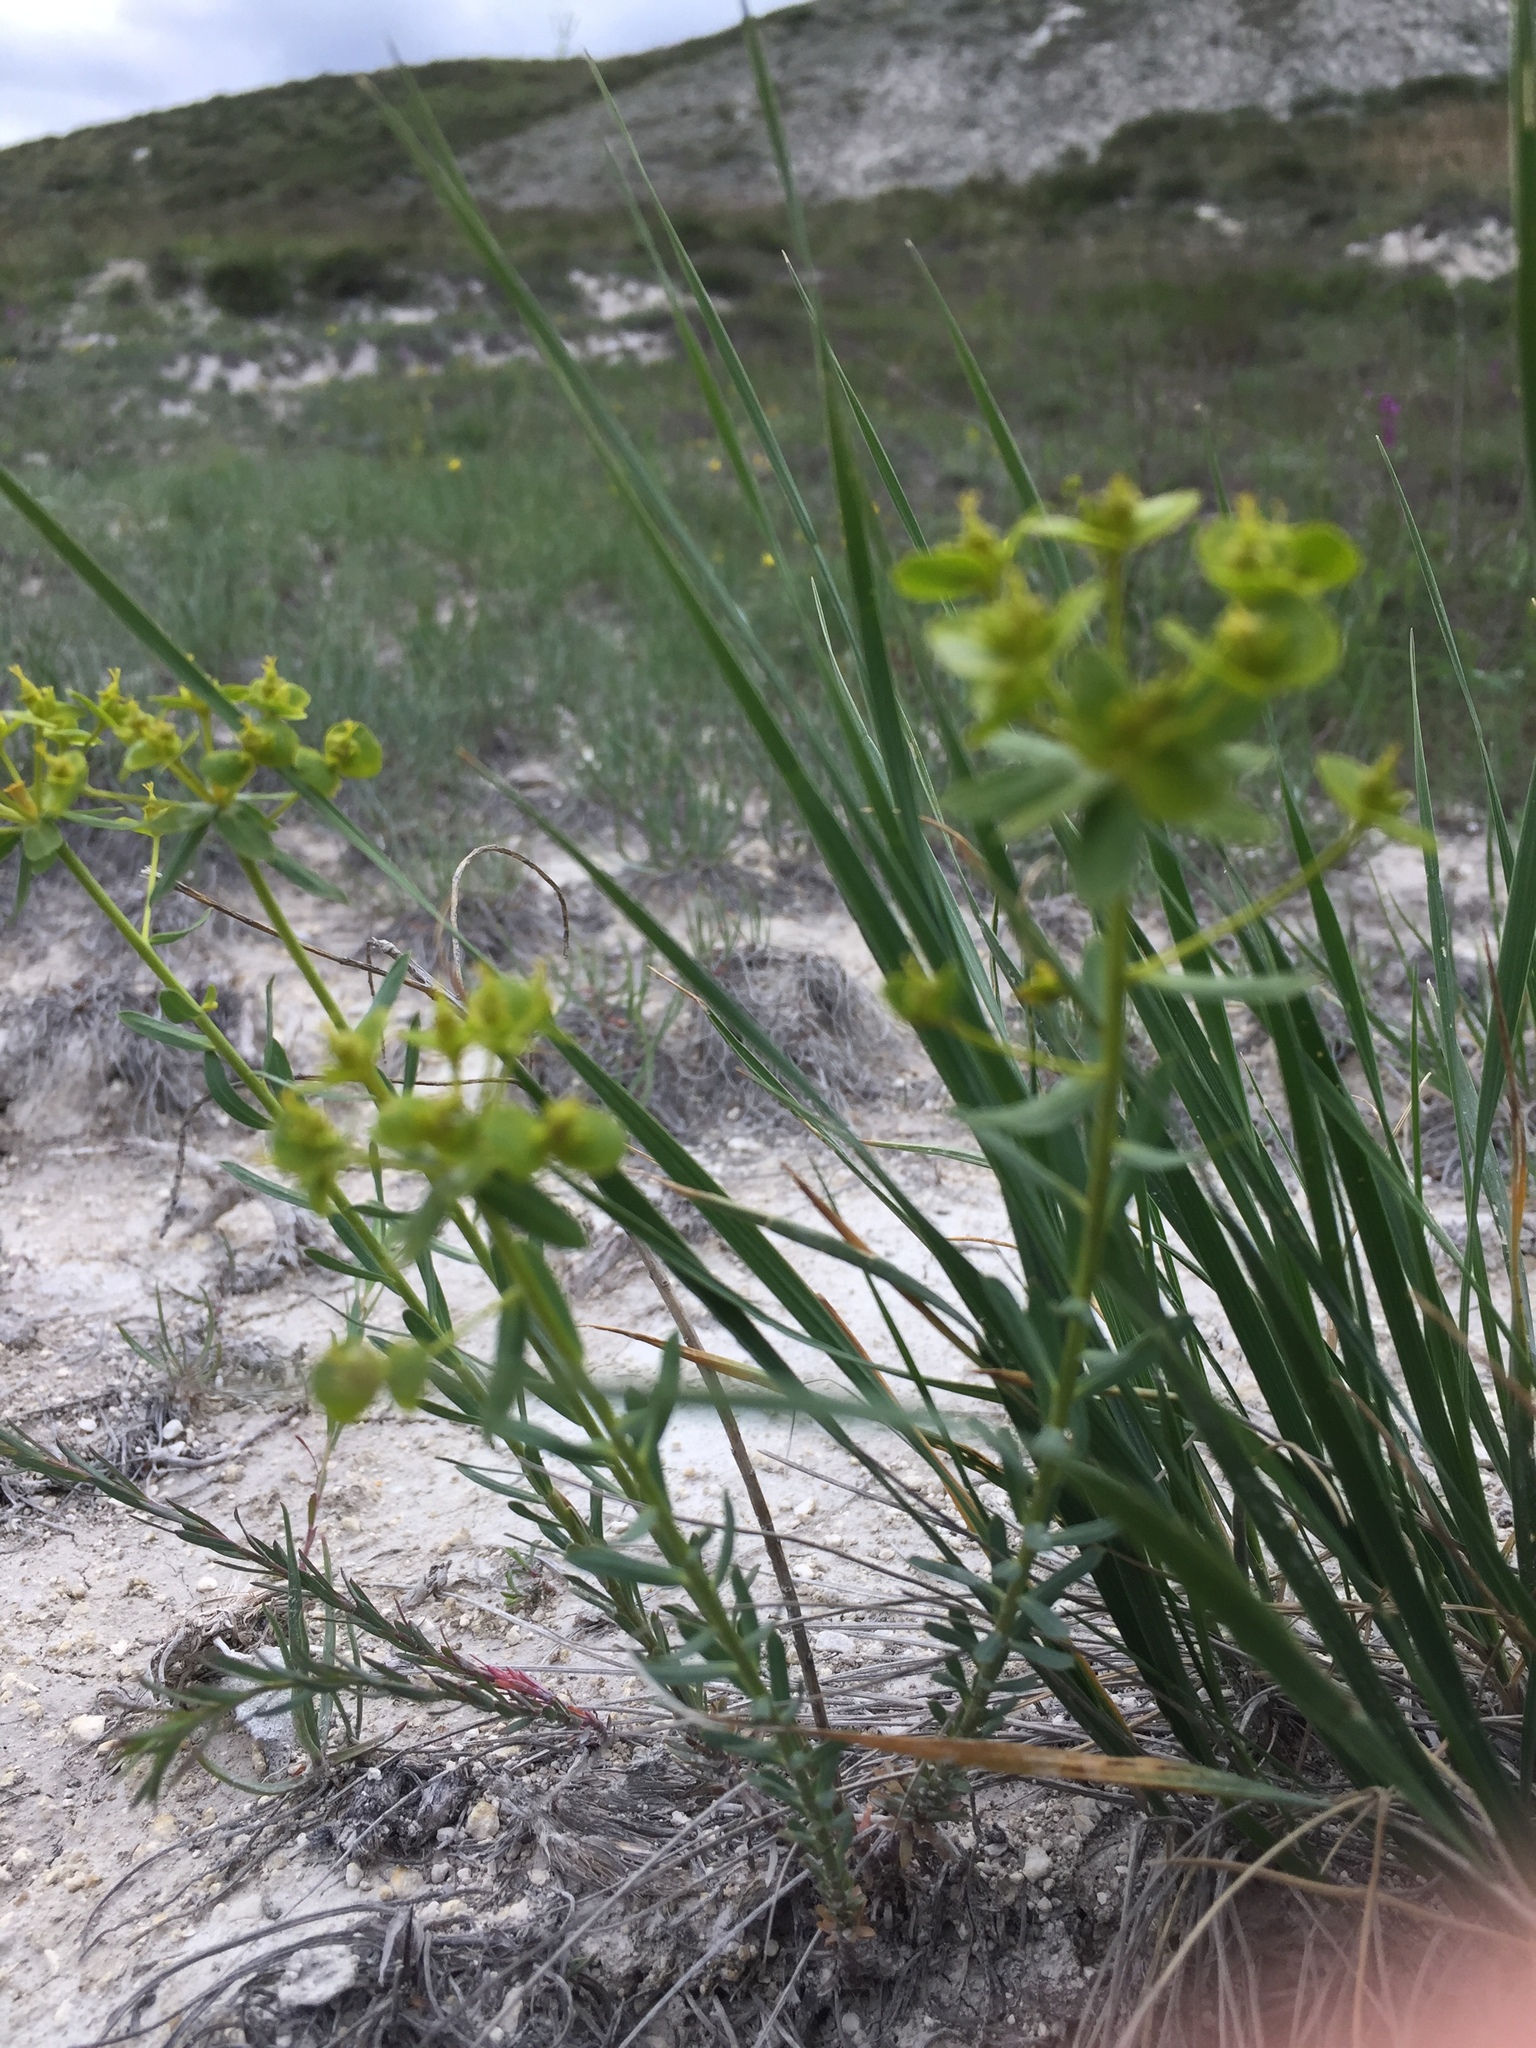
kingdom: Plantae
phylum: Tracheophyta
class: Magnoliopsida
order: Malpighiales
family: Euphorbiaceae
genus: Euphorbia
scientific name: Euphorbia seguieriana
